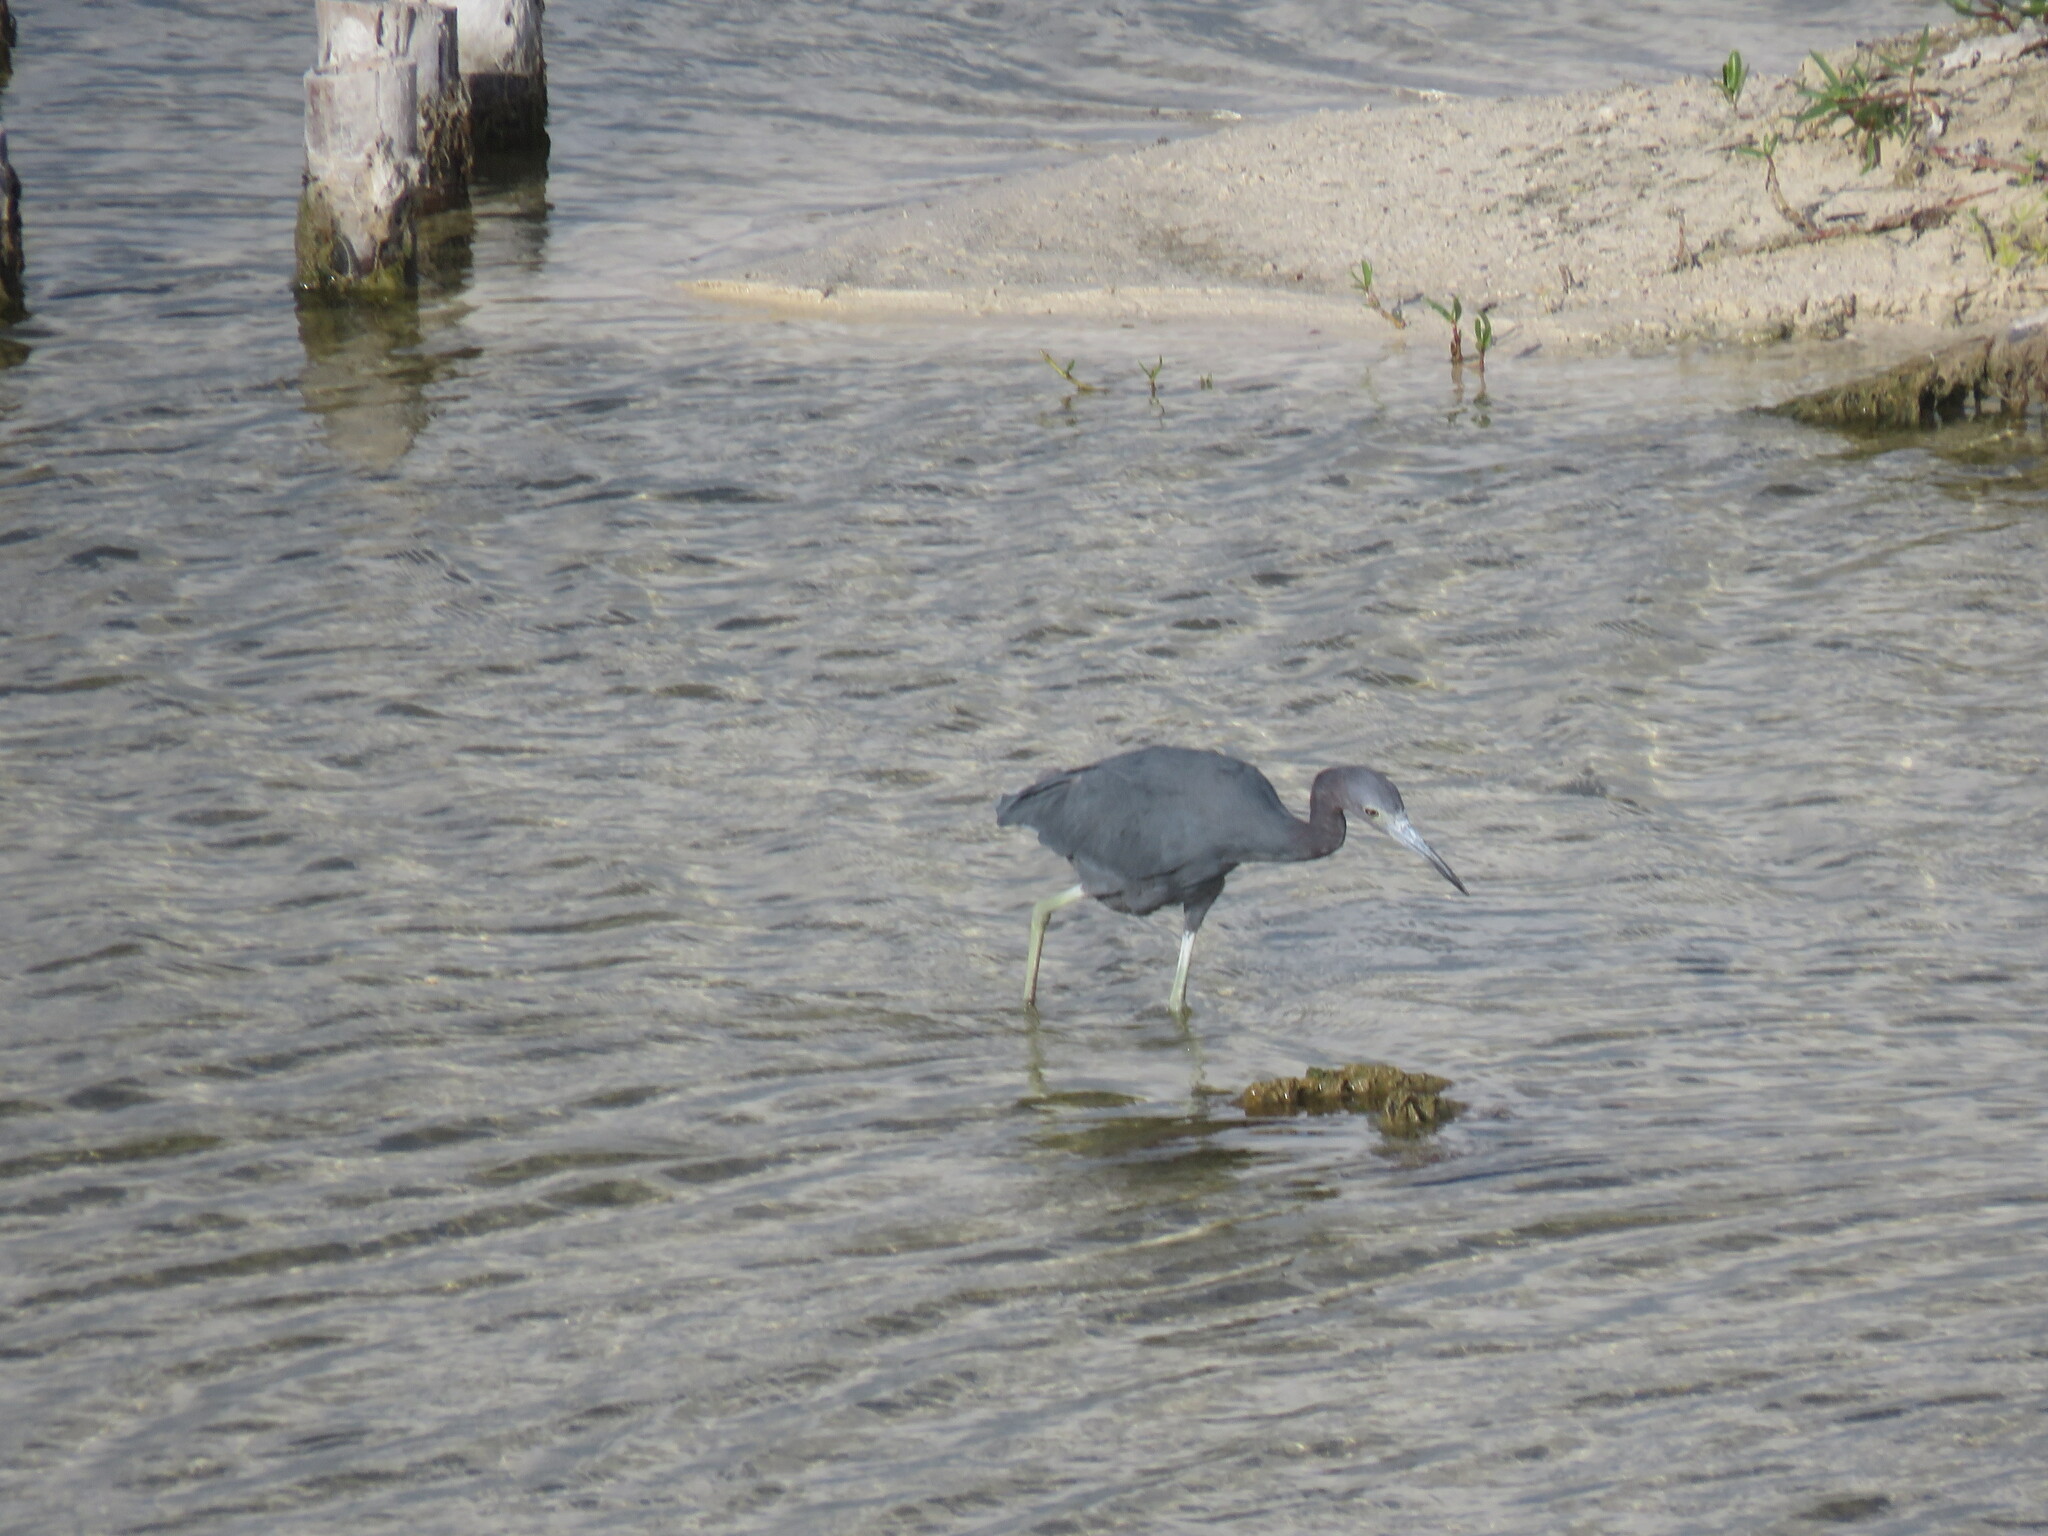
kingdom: Animalia
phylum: Chordata
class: Aves
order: Pelecaniformes
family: Ardeidae
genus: Egretta
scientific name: Egretta caerulea
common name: Little blue heron
